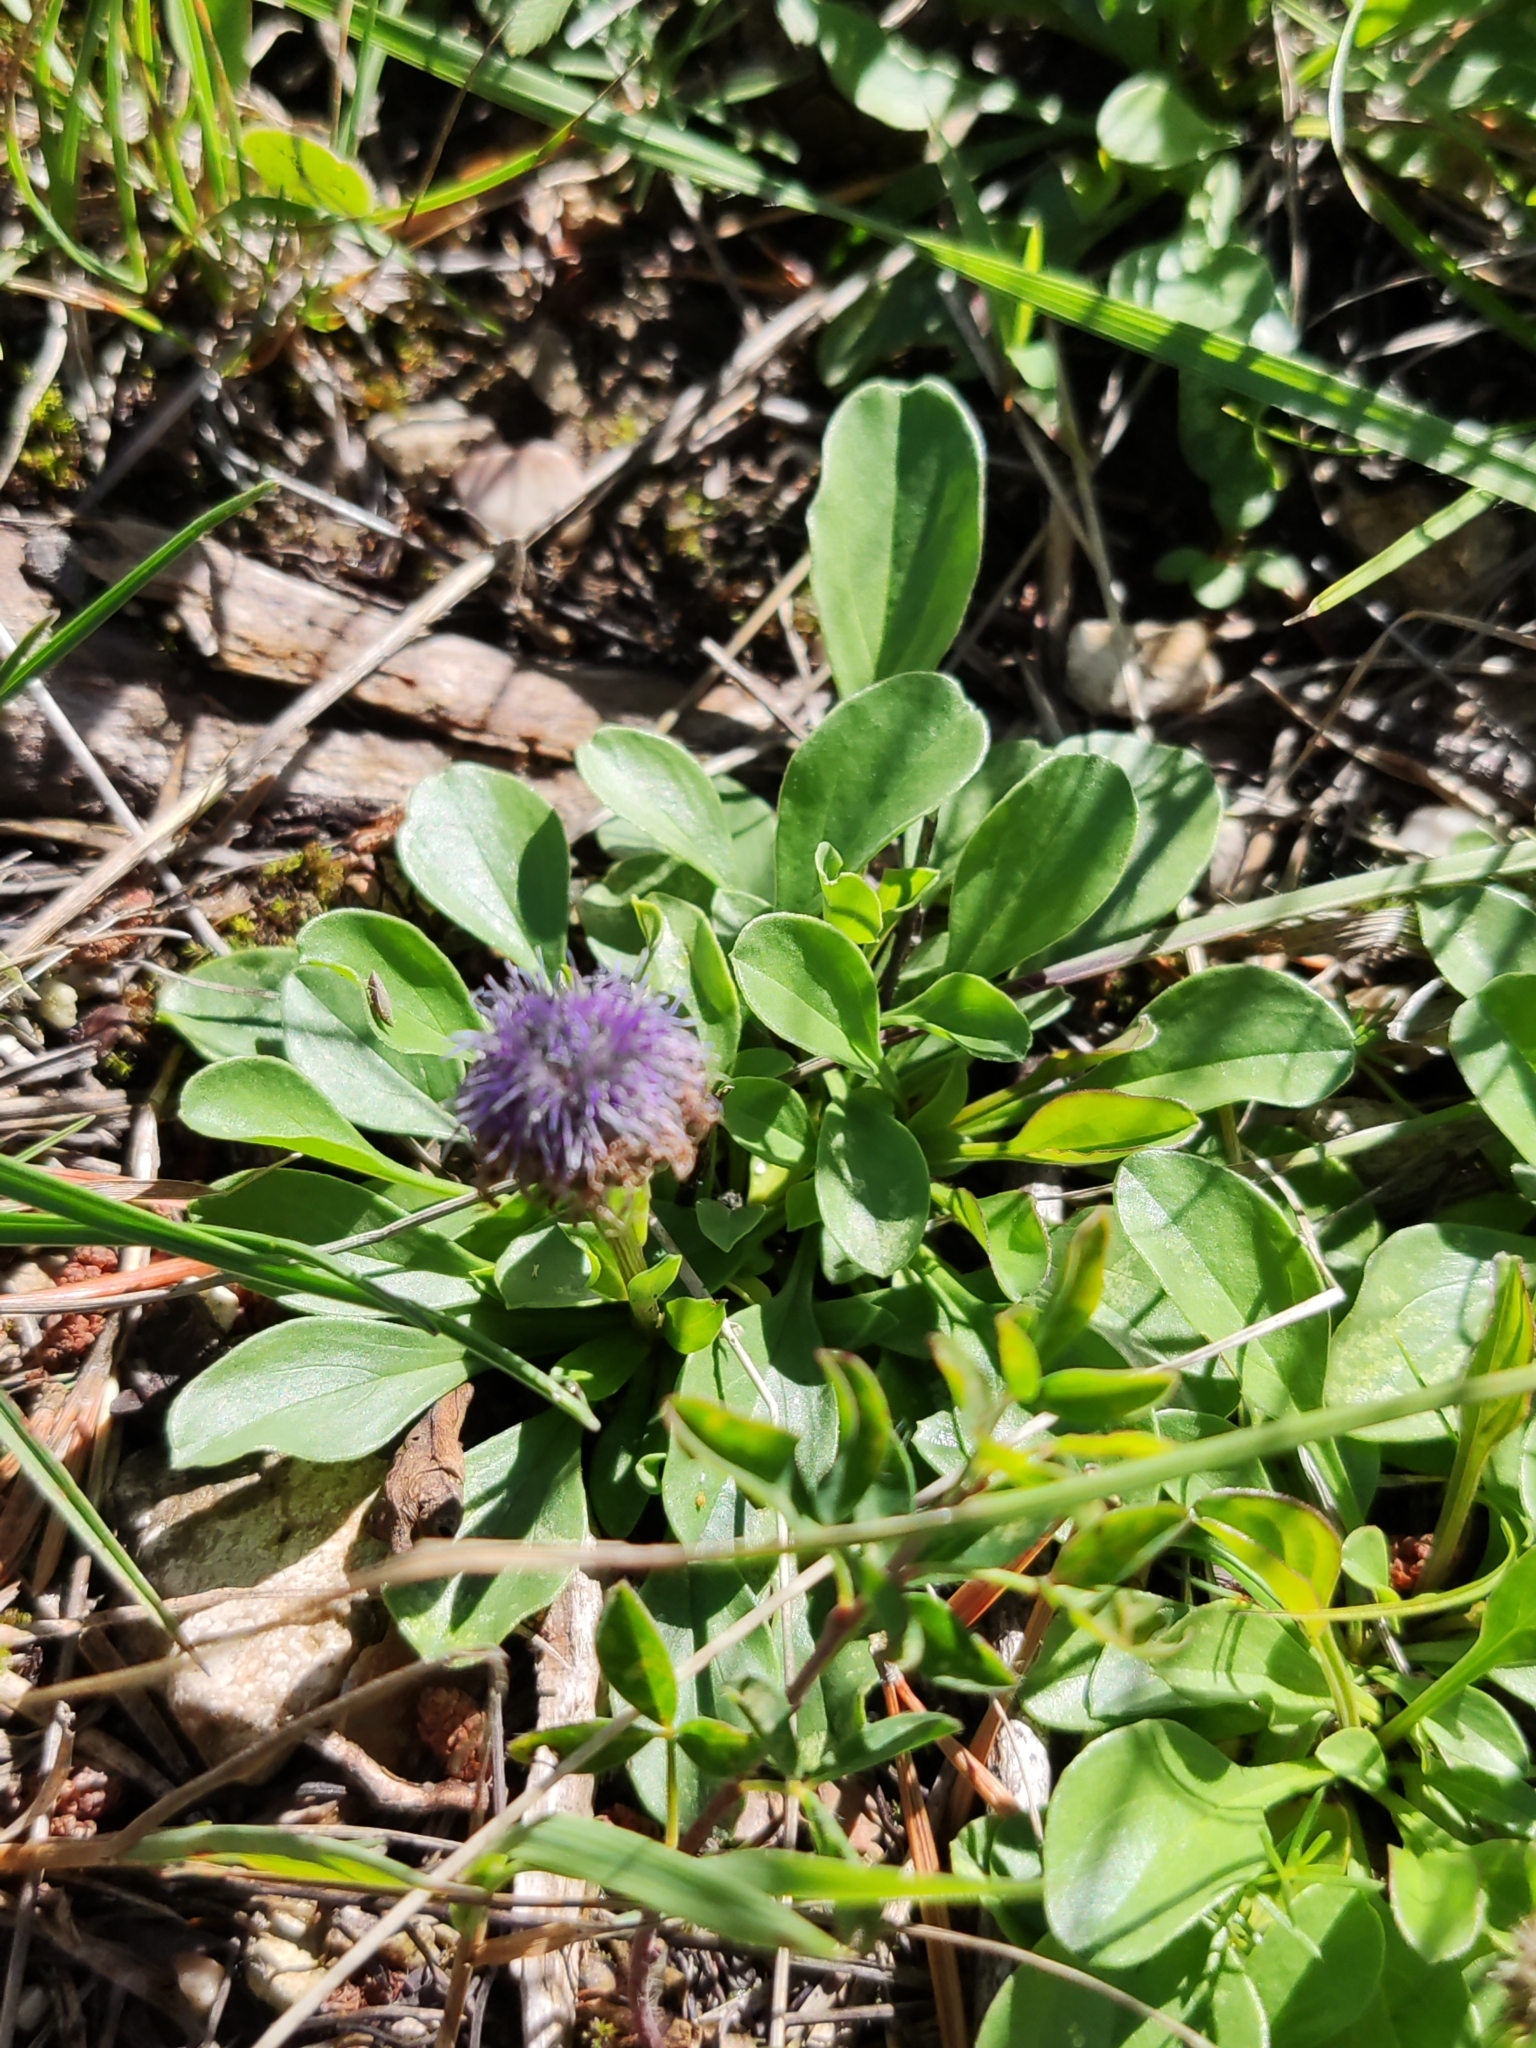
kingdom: Plantae
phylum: Tracheophyta
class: Magnoliopsida
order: Lamiales
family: Plantaginaceae
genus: Globularia
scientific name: Globularia bisnagarica
